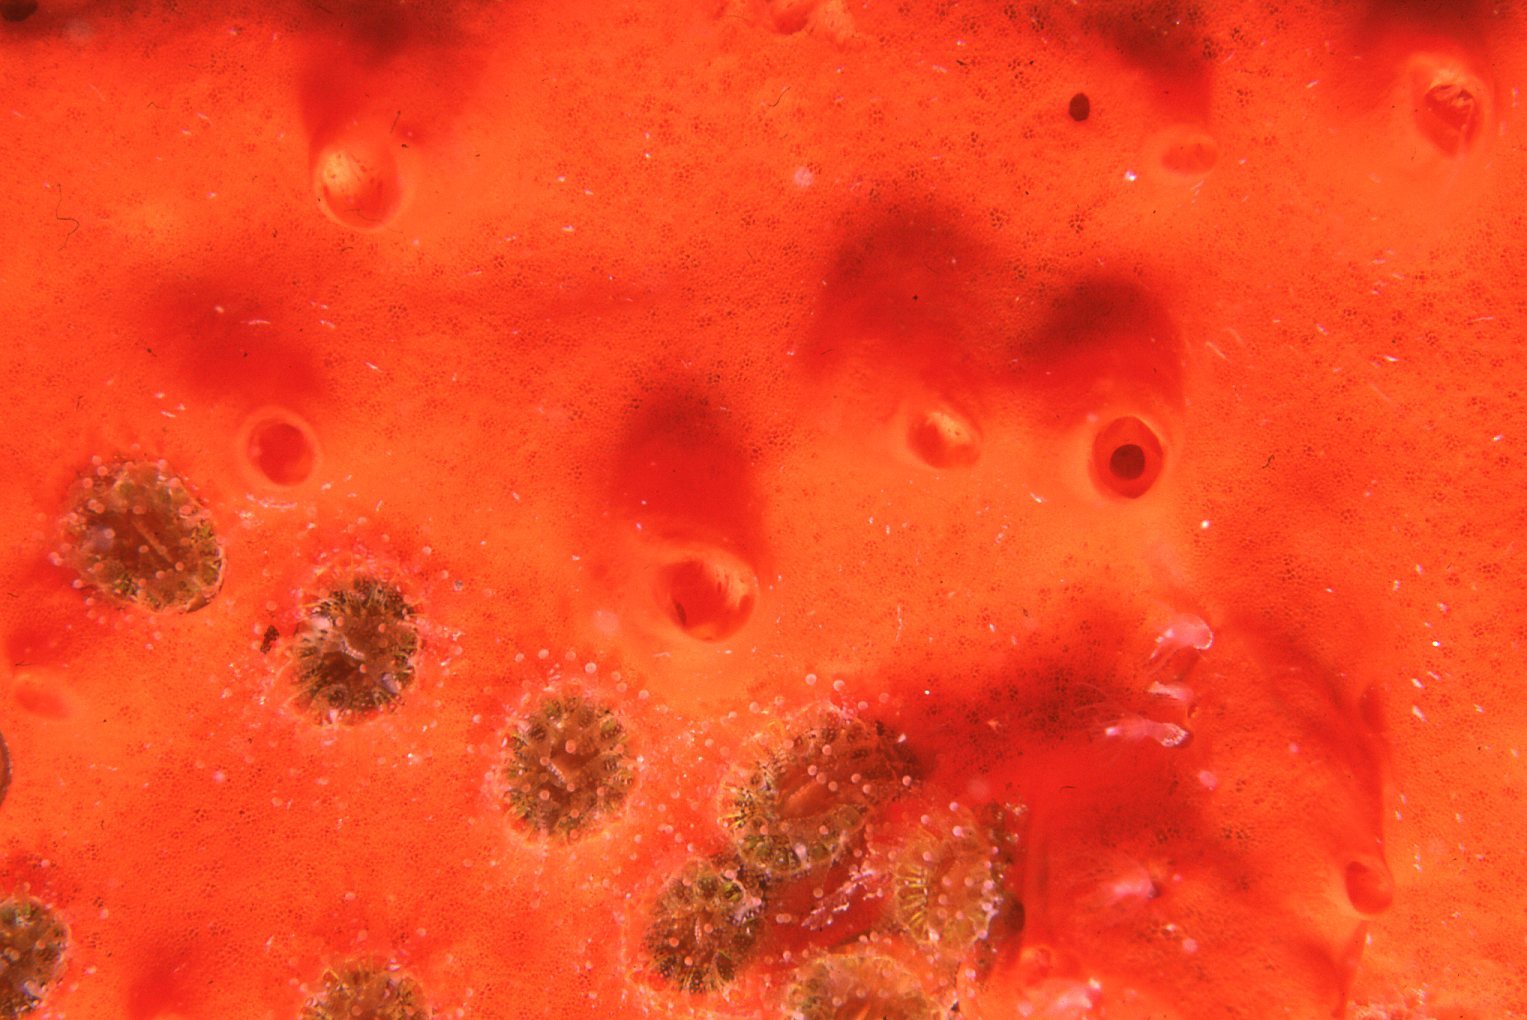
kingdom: Animalia
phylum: Cnidaria
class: Anthozoa
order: Scleractinia
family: Rhizangiidae
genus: Culicia
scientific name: Culicia tenella
